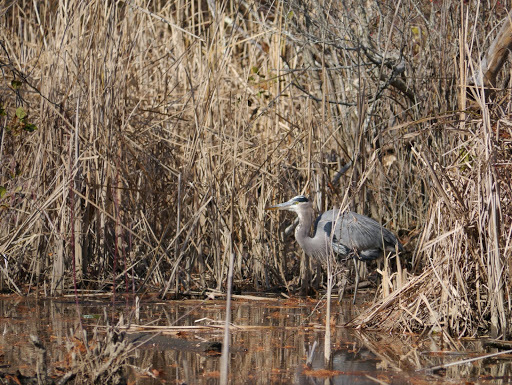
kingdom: Animalia
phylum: Chordata
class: Aves
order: Pelecaniformes
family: Ardeidae
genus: Ardea
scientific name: Ardea herodias
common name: Great blue heron
